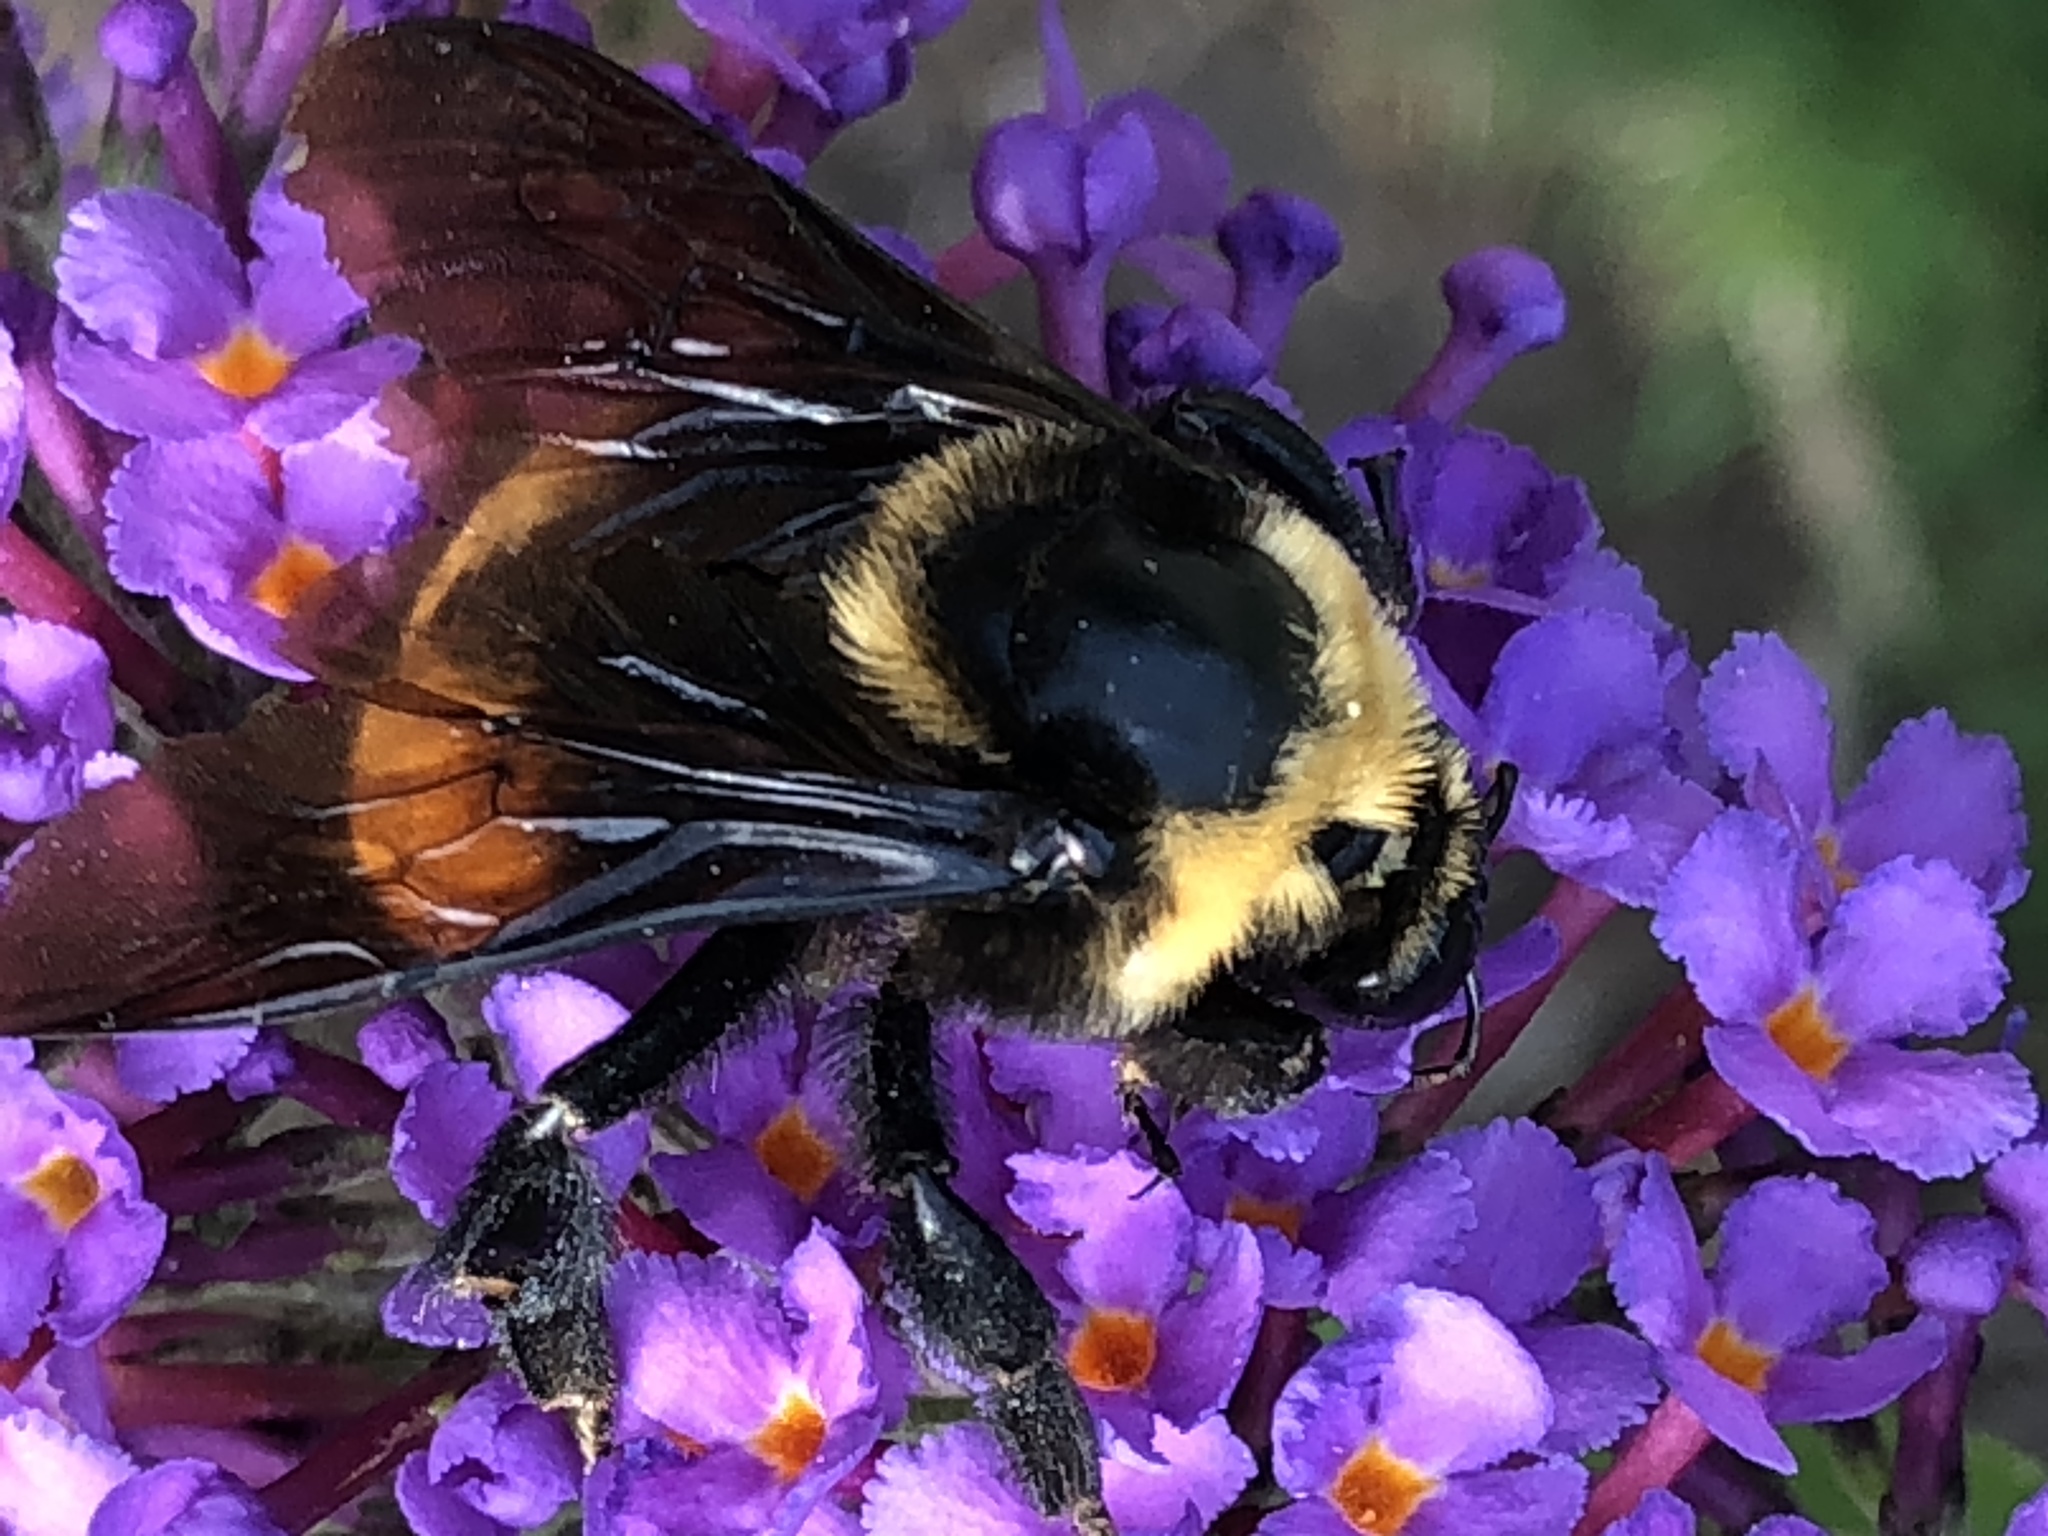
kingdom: Animalia
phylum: Arthropoda
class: Insecta
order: Hymenoptera
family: Apidae
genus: Bombus
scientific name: Bombus auricomus
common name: Black and gold bumble bee
